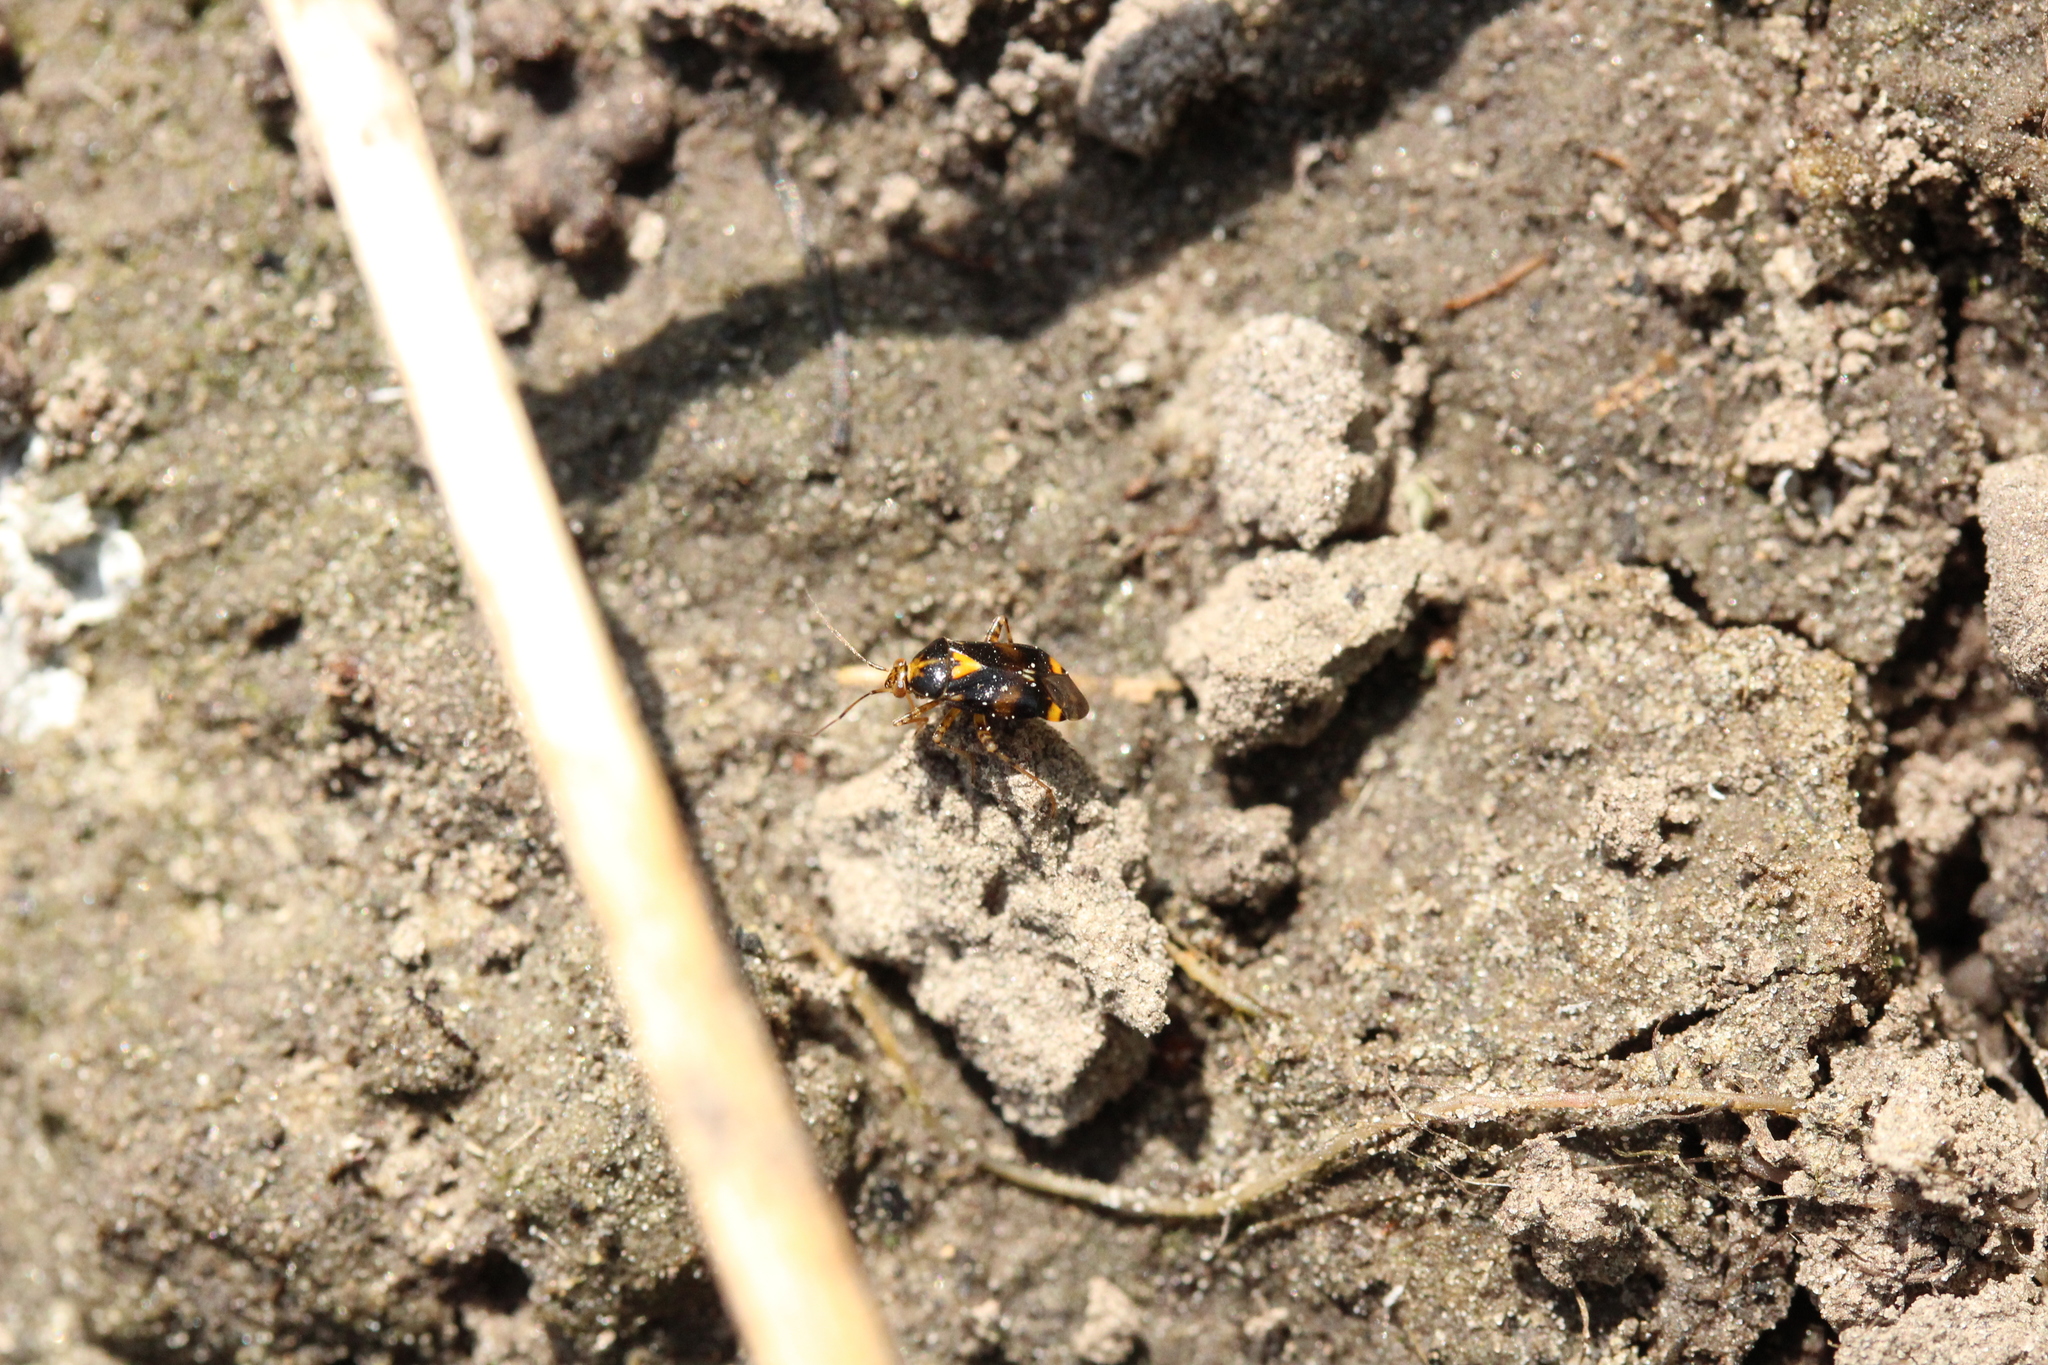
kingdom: Animalia
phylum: Arthropoda
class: Insecta
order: Hemiptera
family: Miridae
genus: Liocoris
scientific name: Liocoris tripustulatus
